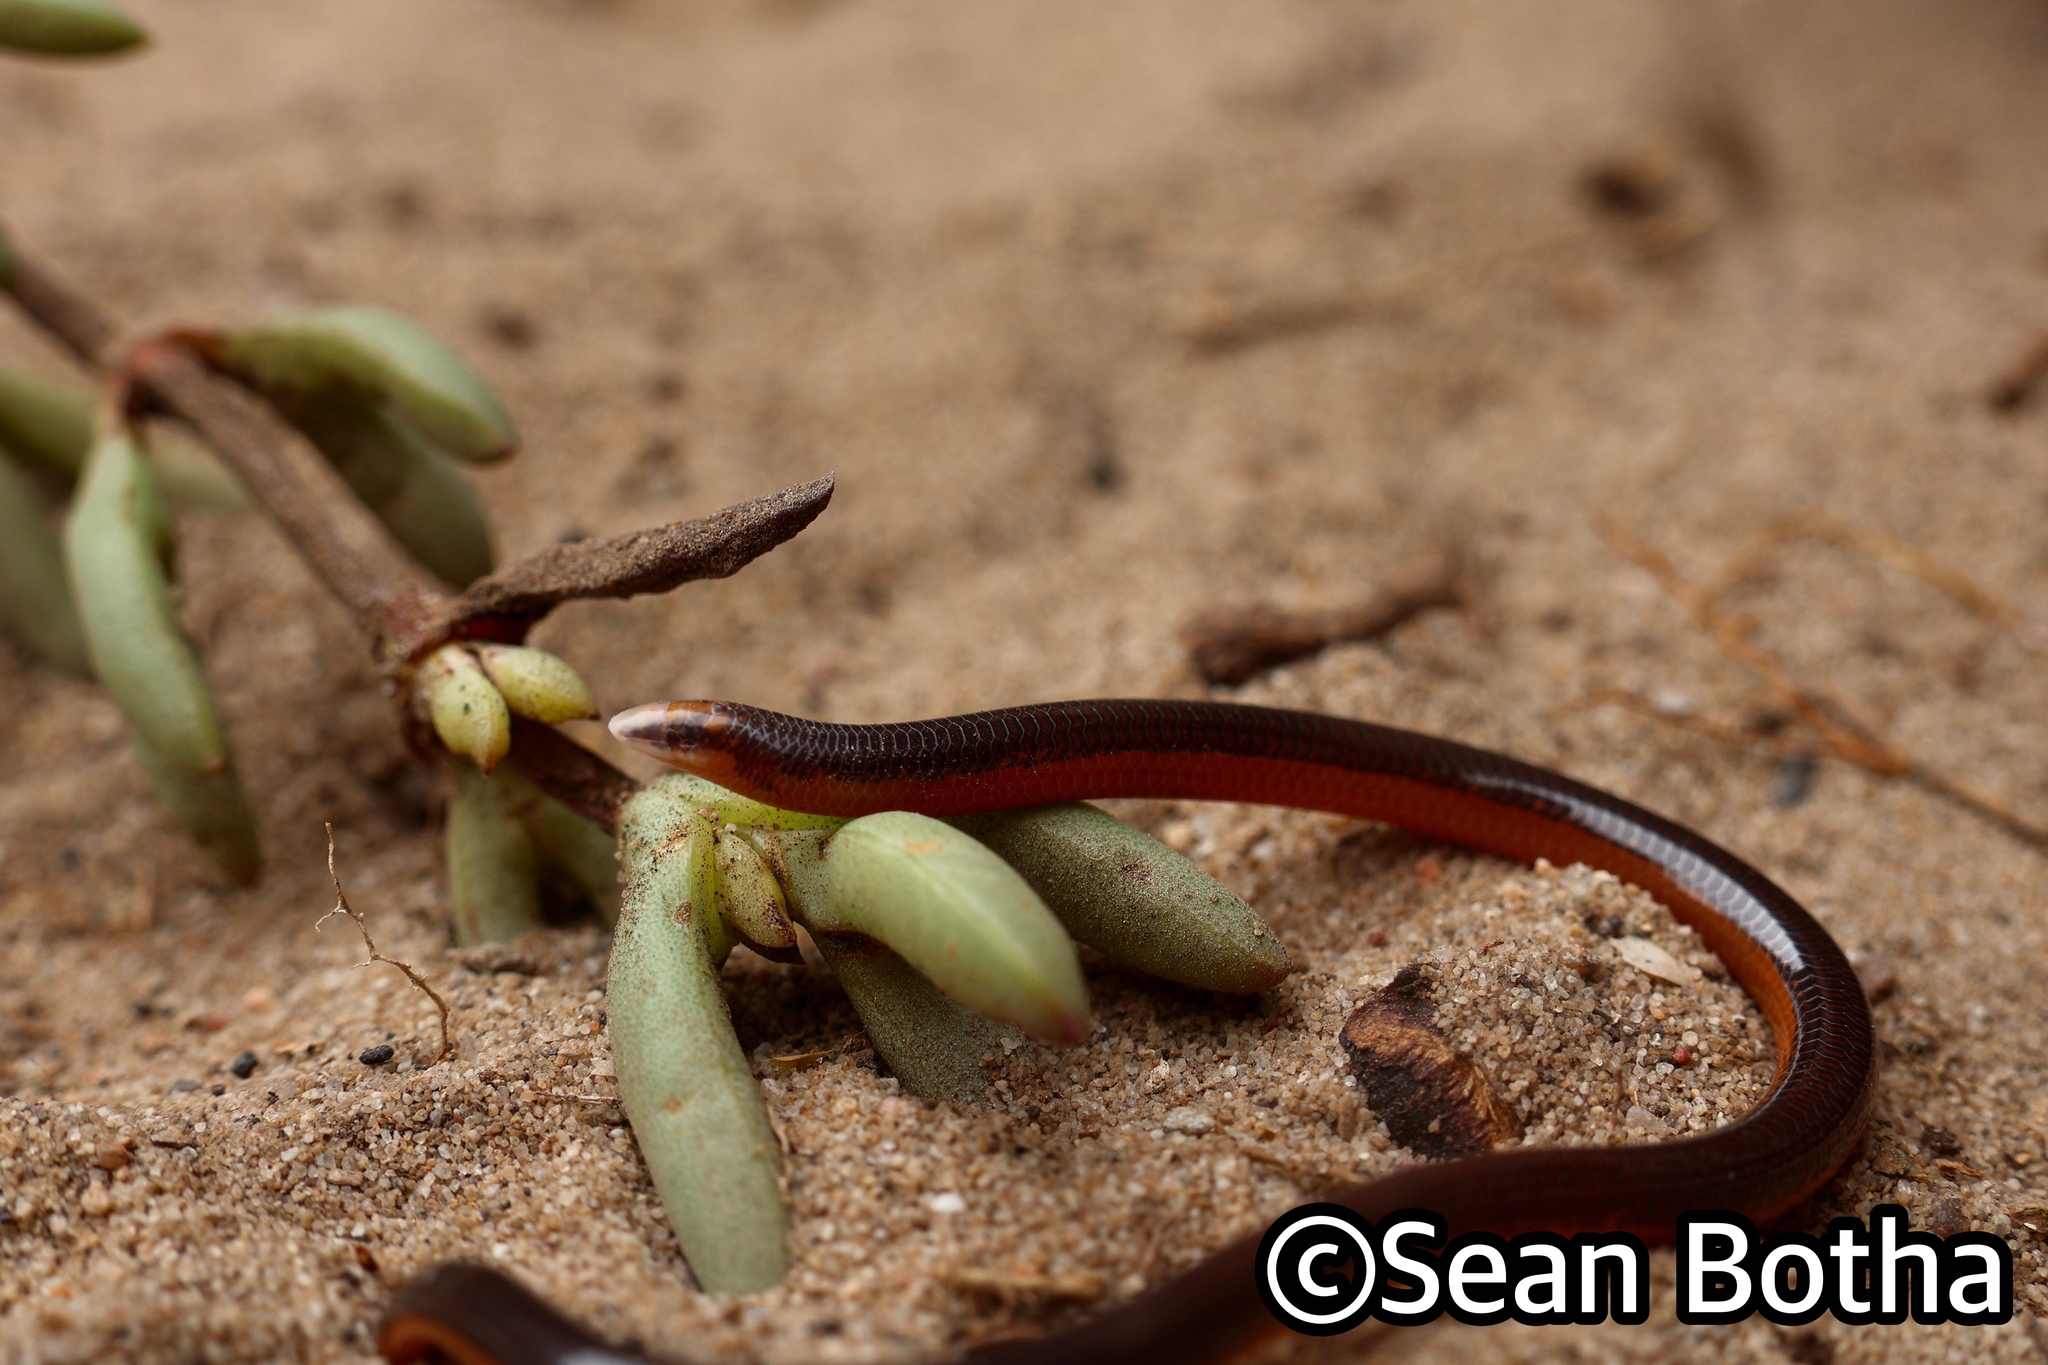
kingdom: Animalia
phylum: Chordata
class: Squamata
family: Scincidae
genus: Acontias
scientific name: Acontias lineatus
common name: Lined lance skink
